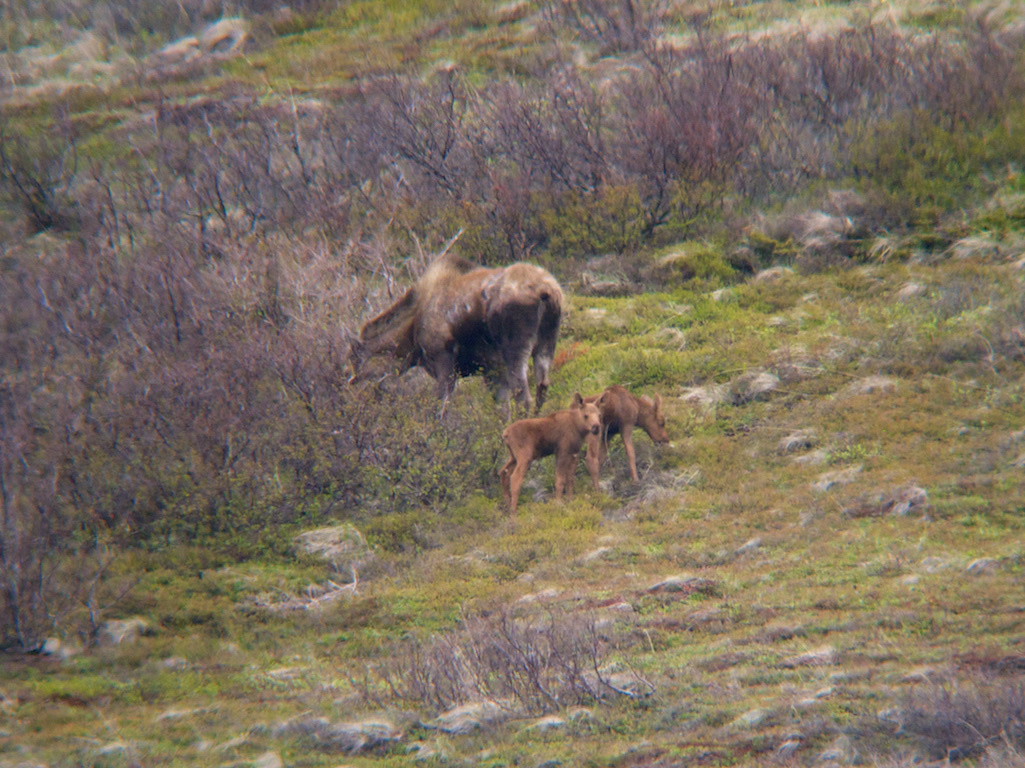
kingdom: Animalia
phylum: Chordata
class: Mammalia
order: Artiodactyla
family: Cervidae
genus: Alces
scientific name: Alces alces
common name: Moose
